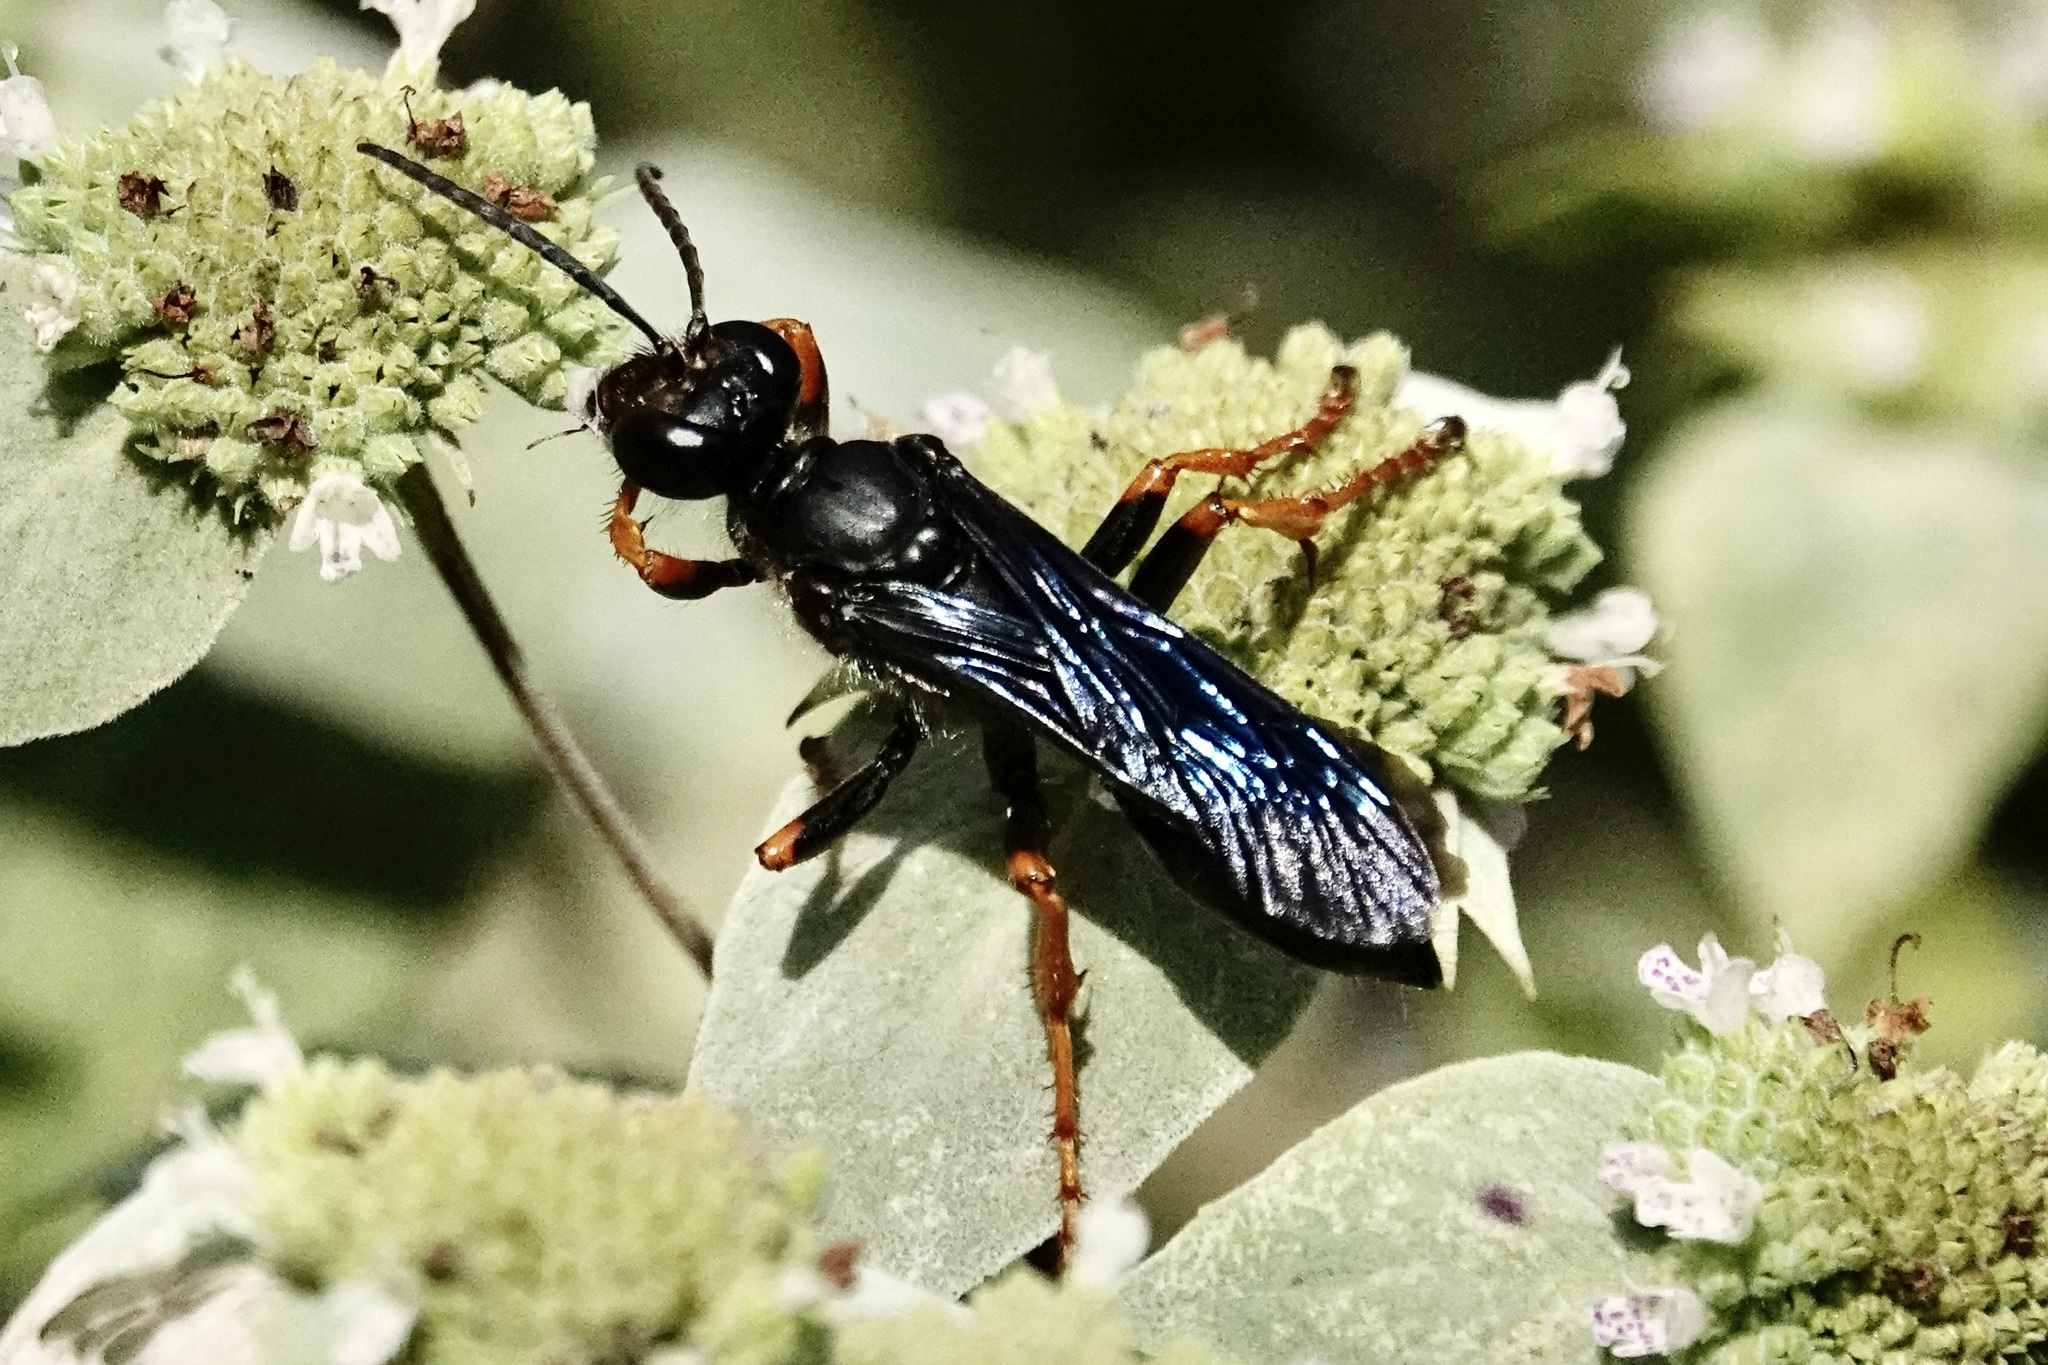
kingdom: Animalia
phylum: Arthropoda
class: Insecta
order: Hymenoptera
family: Sphecidae
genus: Sphex
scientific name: Sphex nudus
